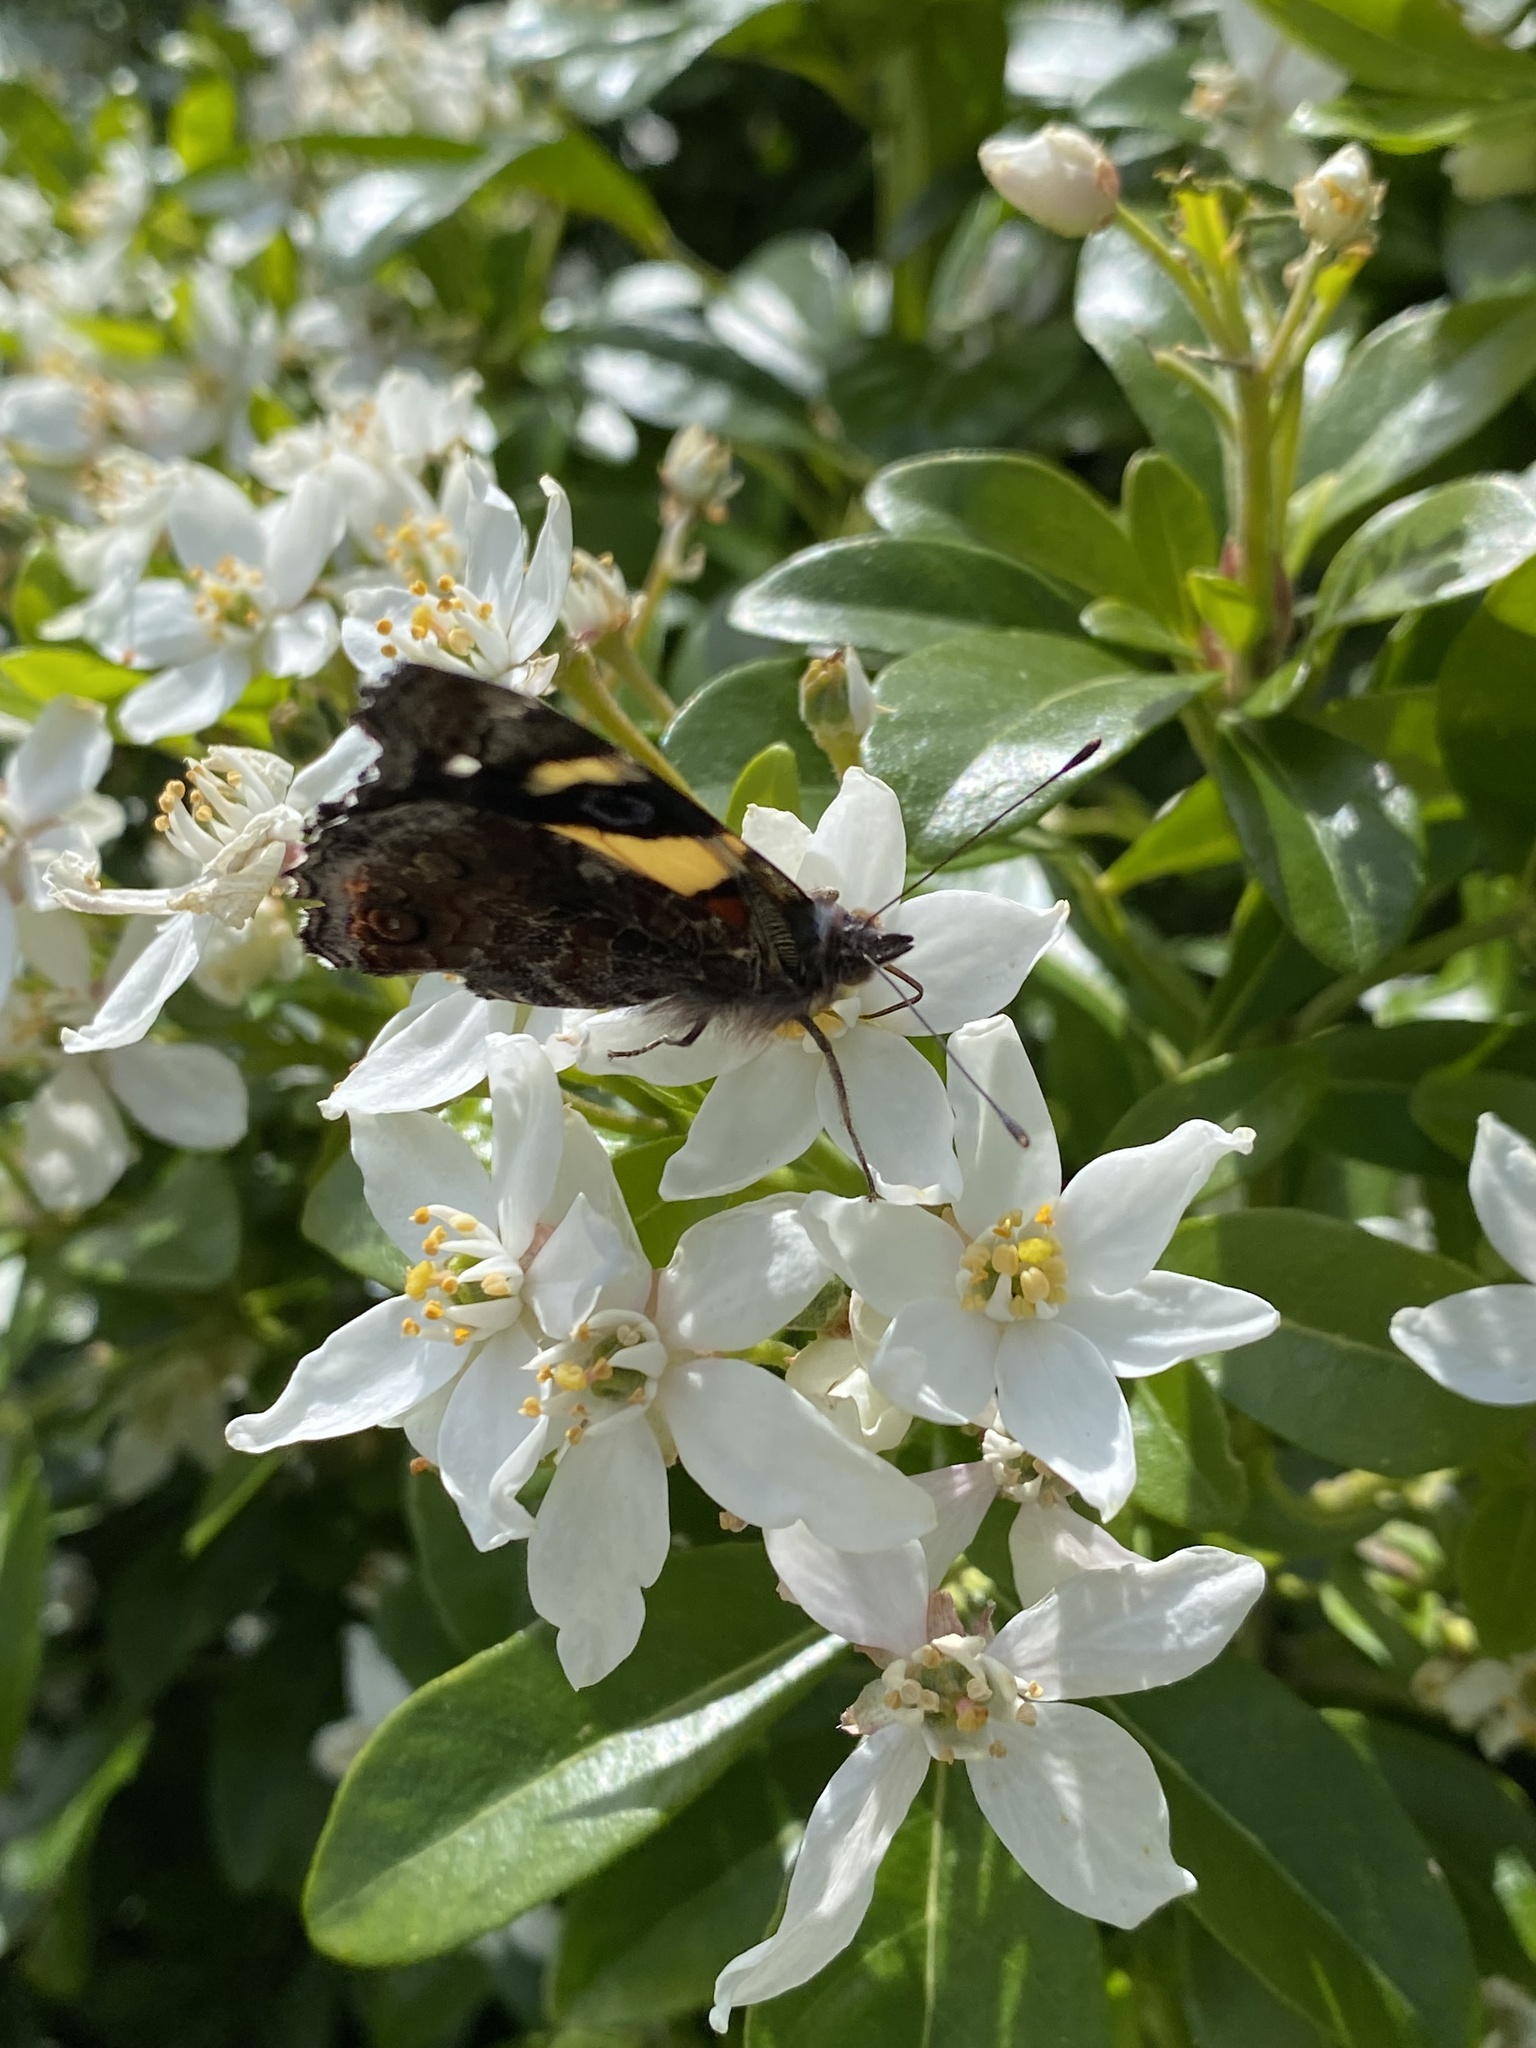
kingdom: Animalia
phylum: Arthropoda
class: Insecta
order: Lepidoptera
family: Nymphalidae
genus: Vanessa
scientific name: Vanessa itea
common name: Yellow admiral
